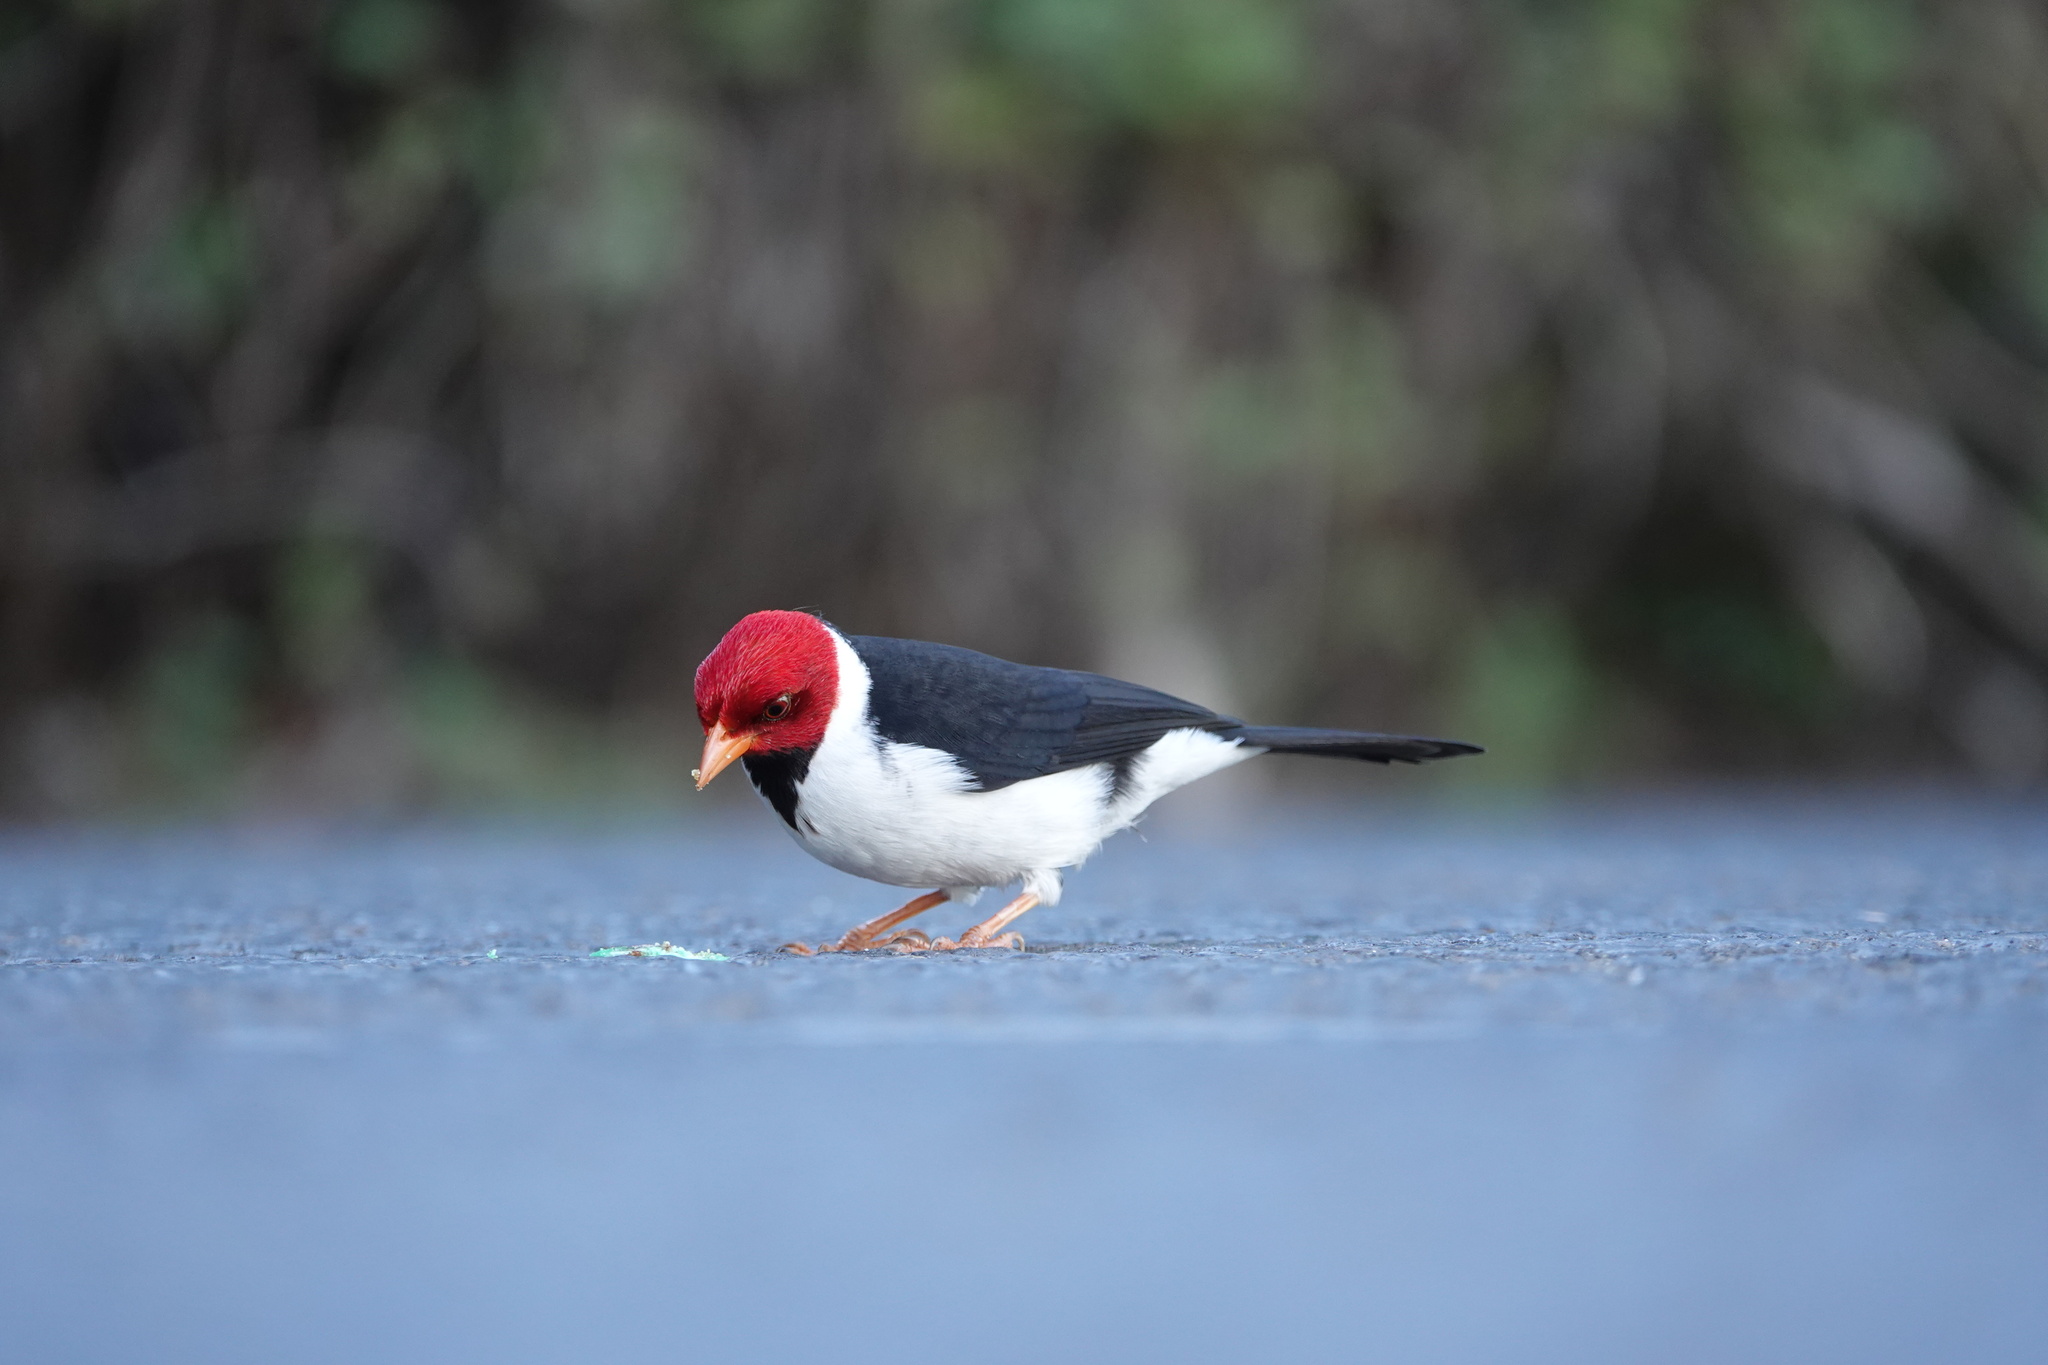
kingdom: Animalia
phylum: Chordata
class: Aves
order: Passeriformes
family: Thraupidae
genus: Paroaria
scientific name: Paroaria capitata
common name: Yellow-billed cardinal
